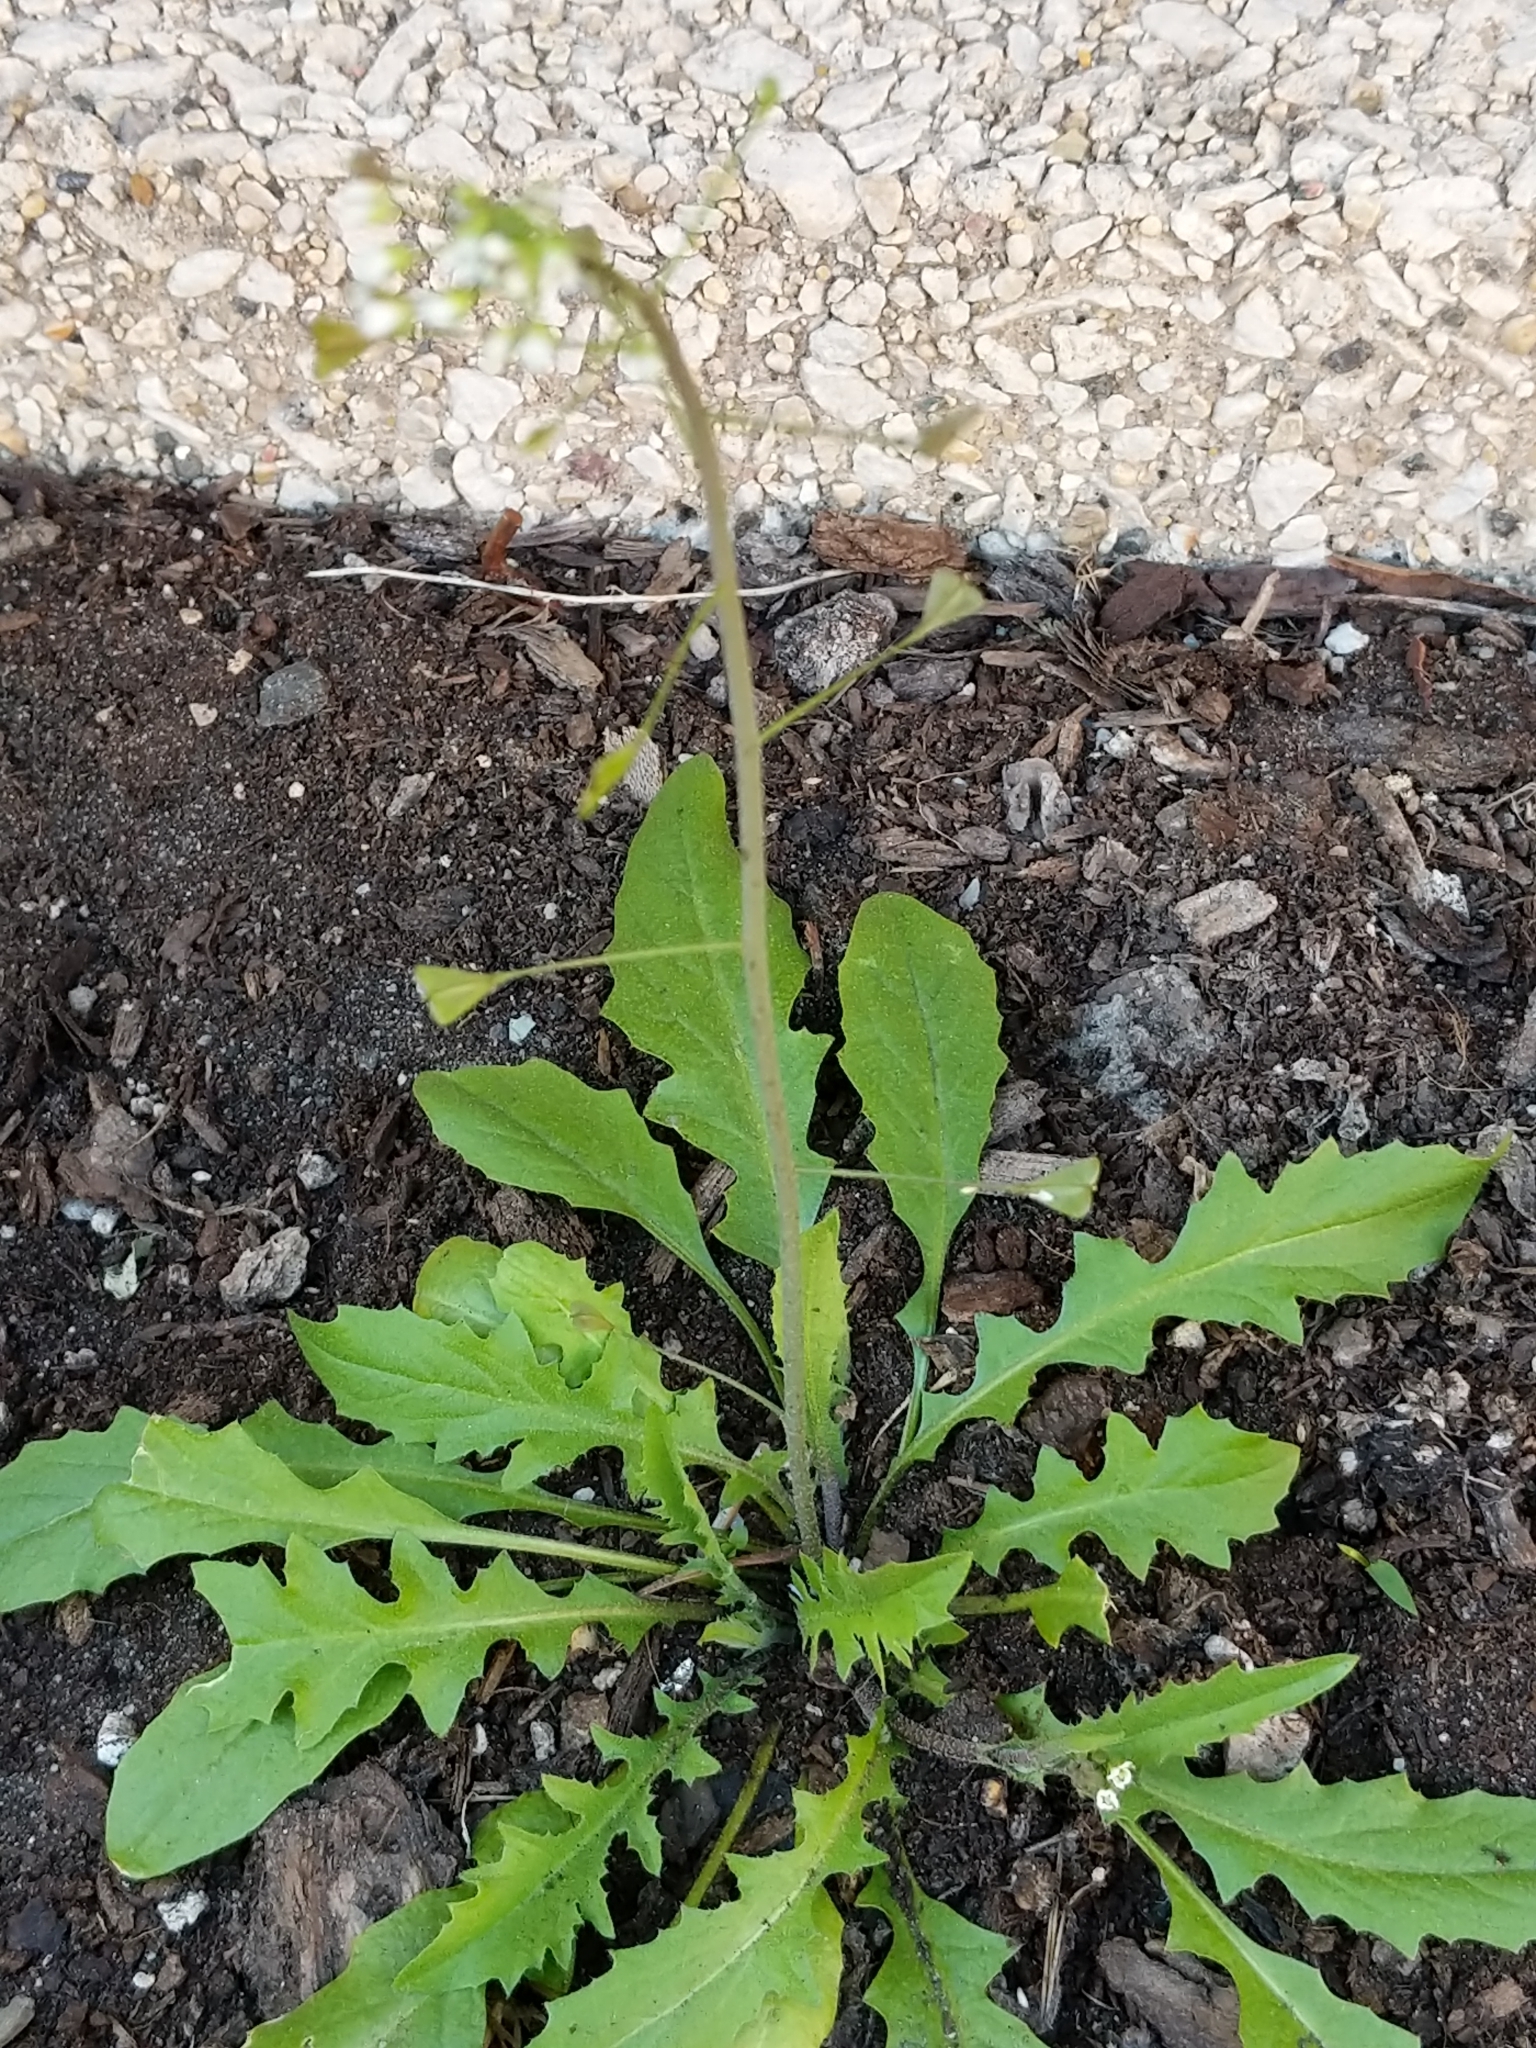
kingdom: Plantae
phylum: Tracheophyta
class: Magnoliopsida
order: Brassicales
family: Brassicaceae
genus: Capsella
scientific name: Capsella bursa-pastoris
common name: Shepherd's purse
